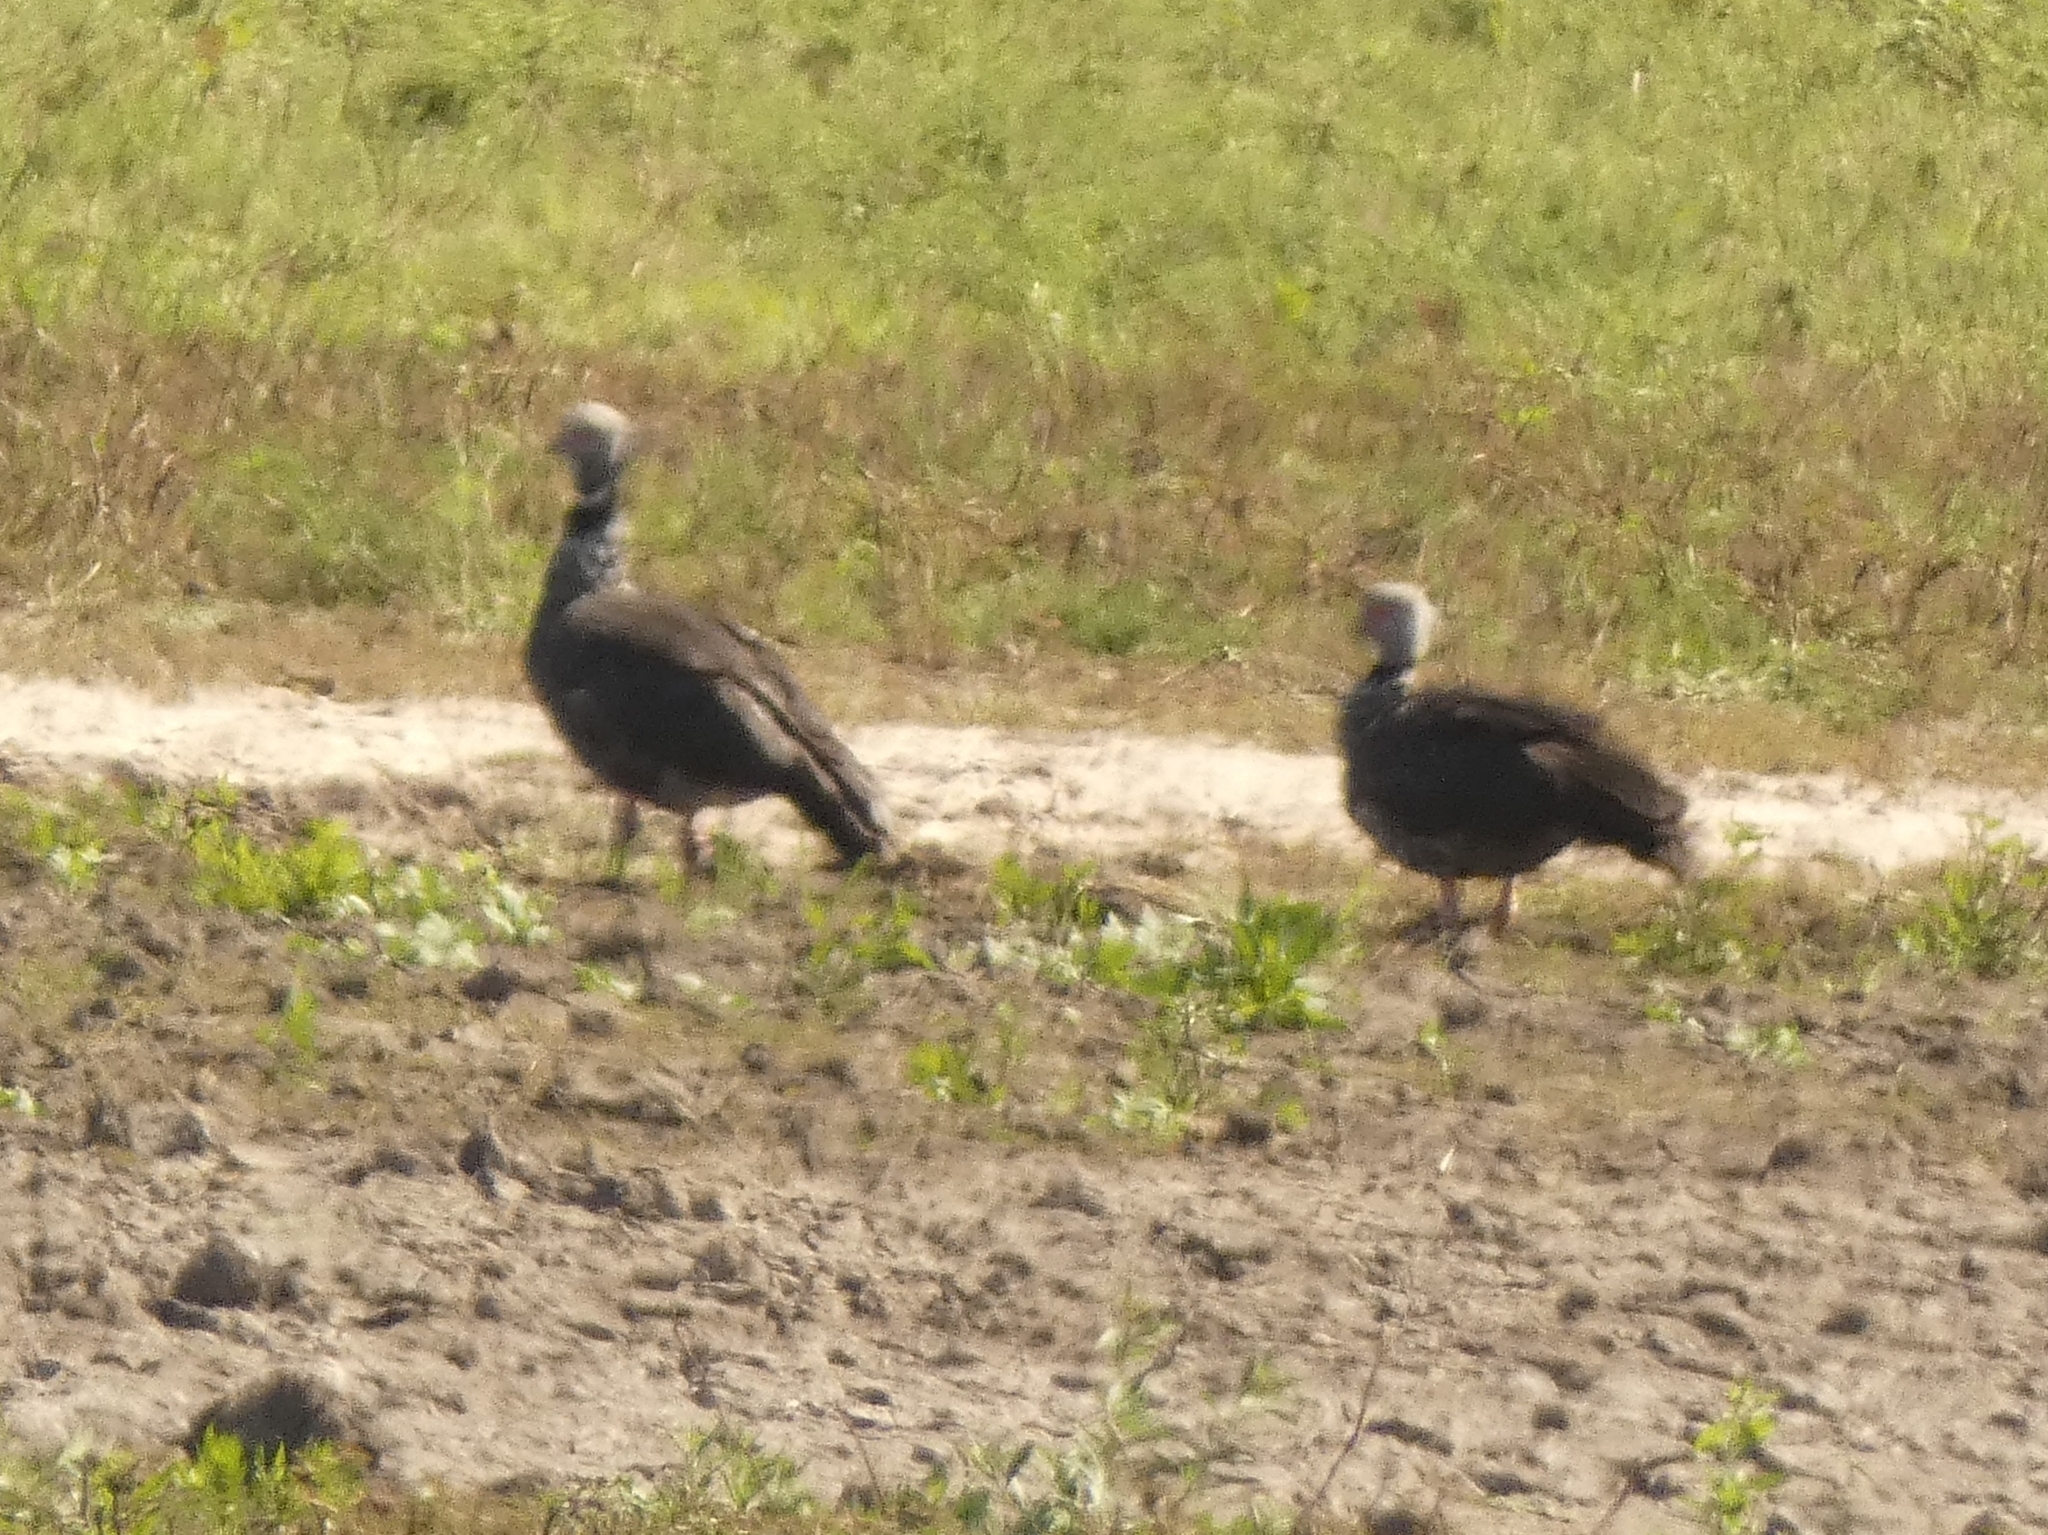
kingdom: Animalia
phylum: Chordata
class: Aves
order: Anseriformes
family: Anhimidae
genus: Chauna
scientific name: Chauna torquata
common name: Southern screamer
